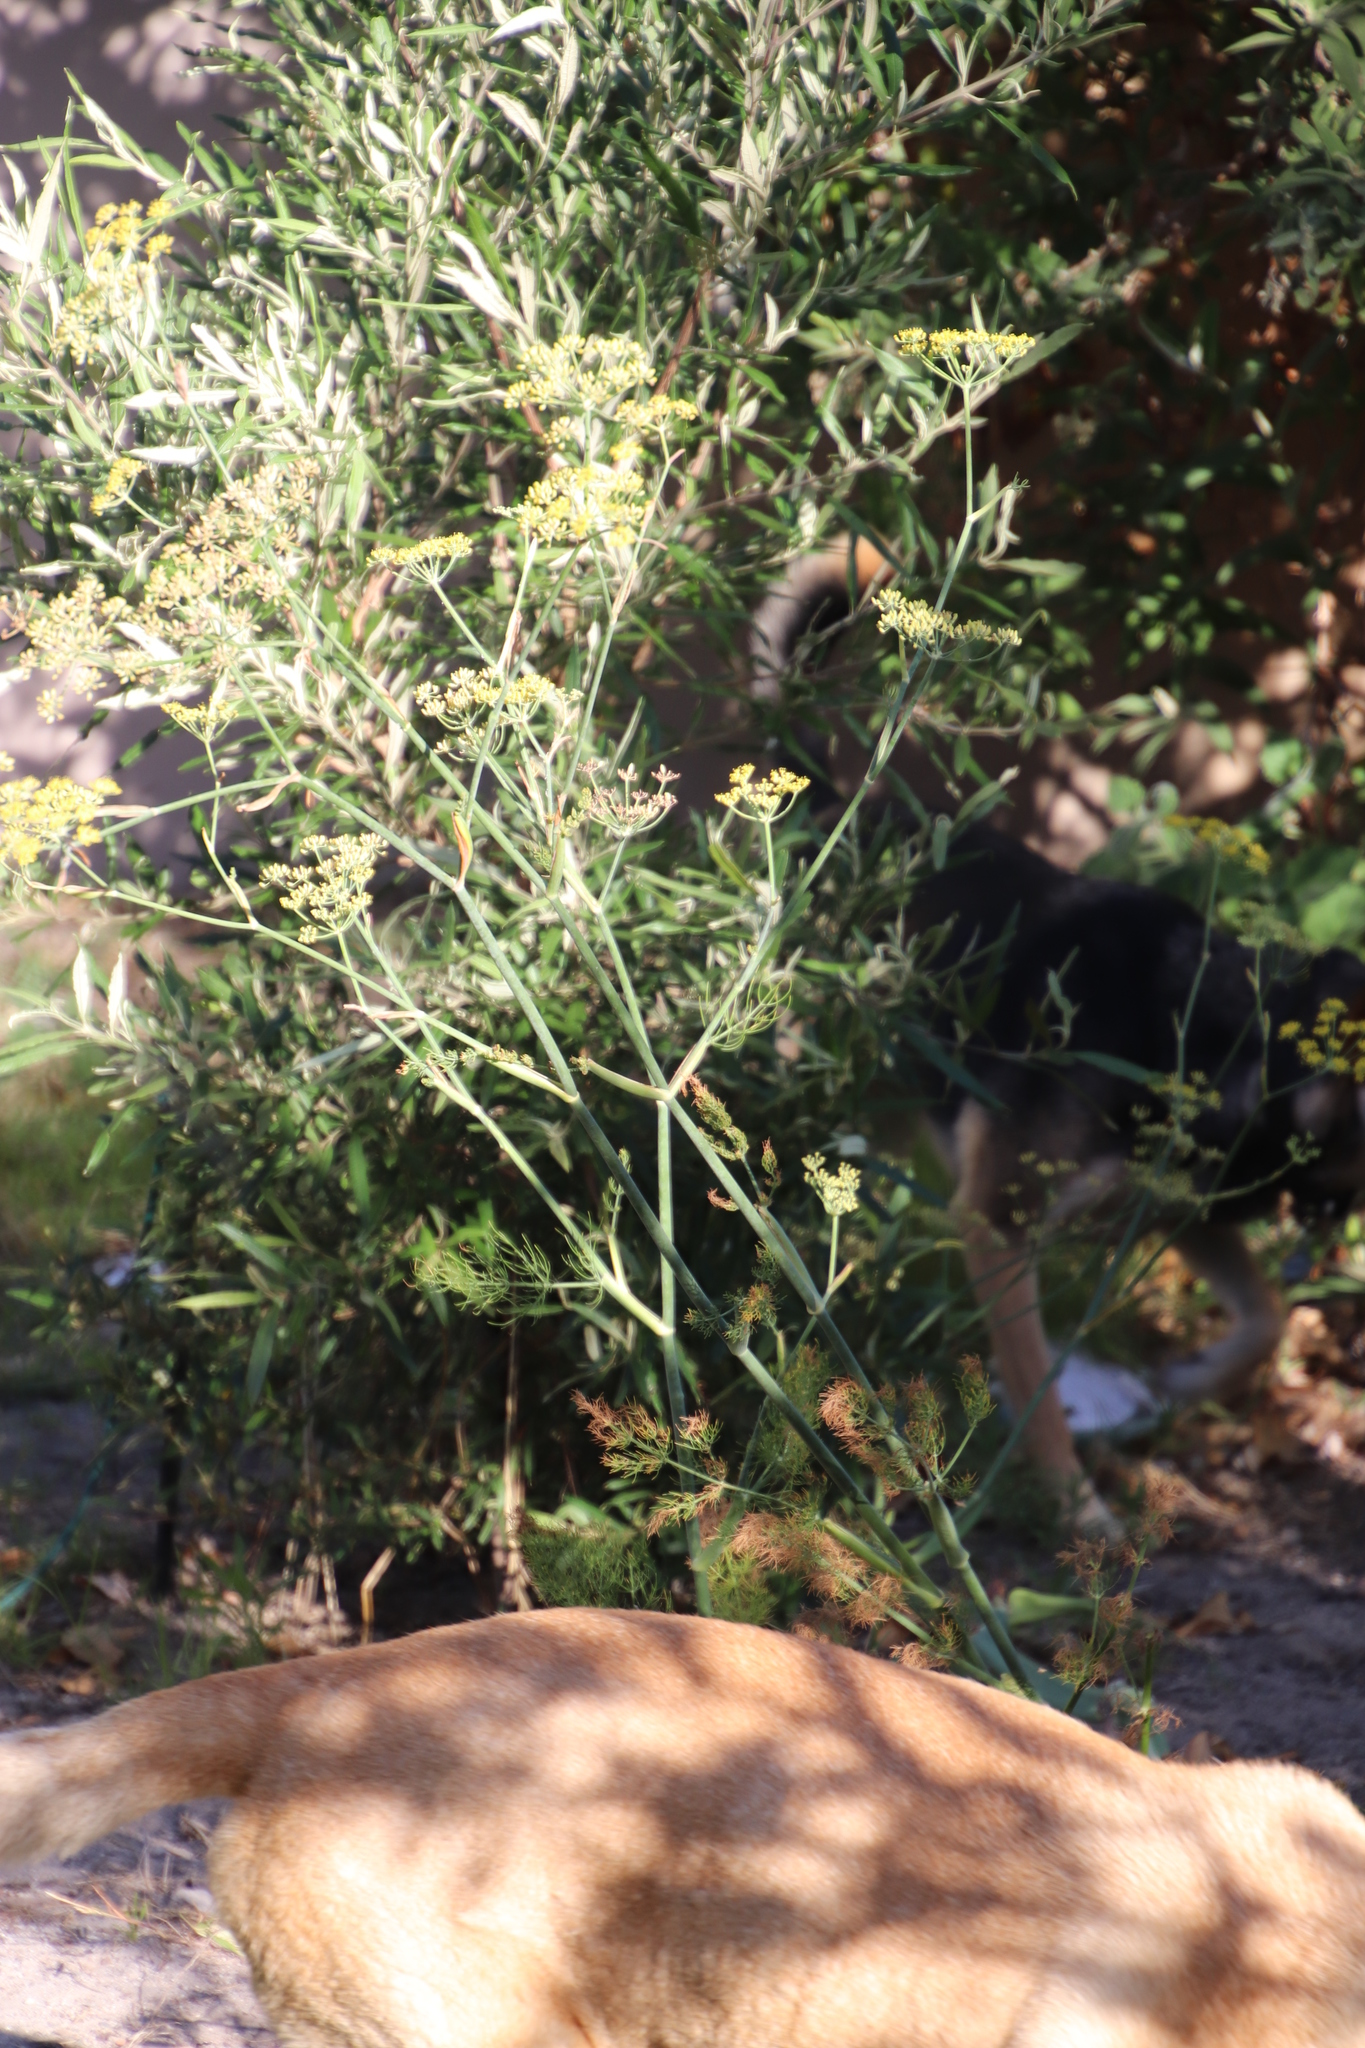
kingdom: Plantae
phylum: Tracheophyta
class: Magnoliopsida
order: Apiales
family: Apiaceae
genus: Foeniculum
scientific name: Foeniculum vulgare
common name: Fennel
